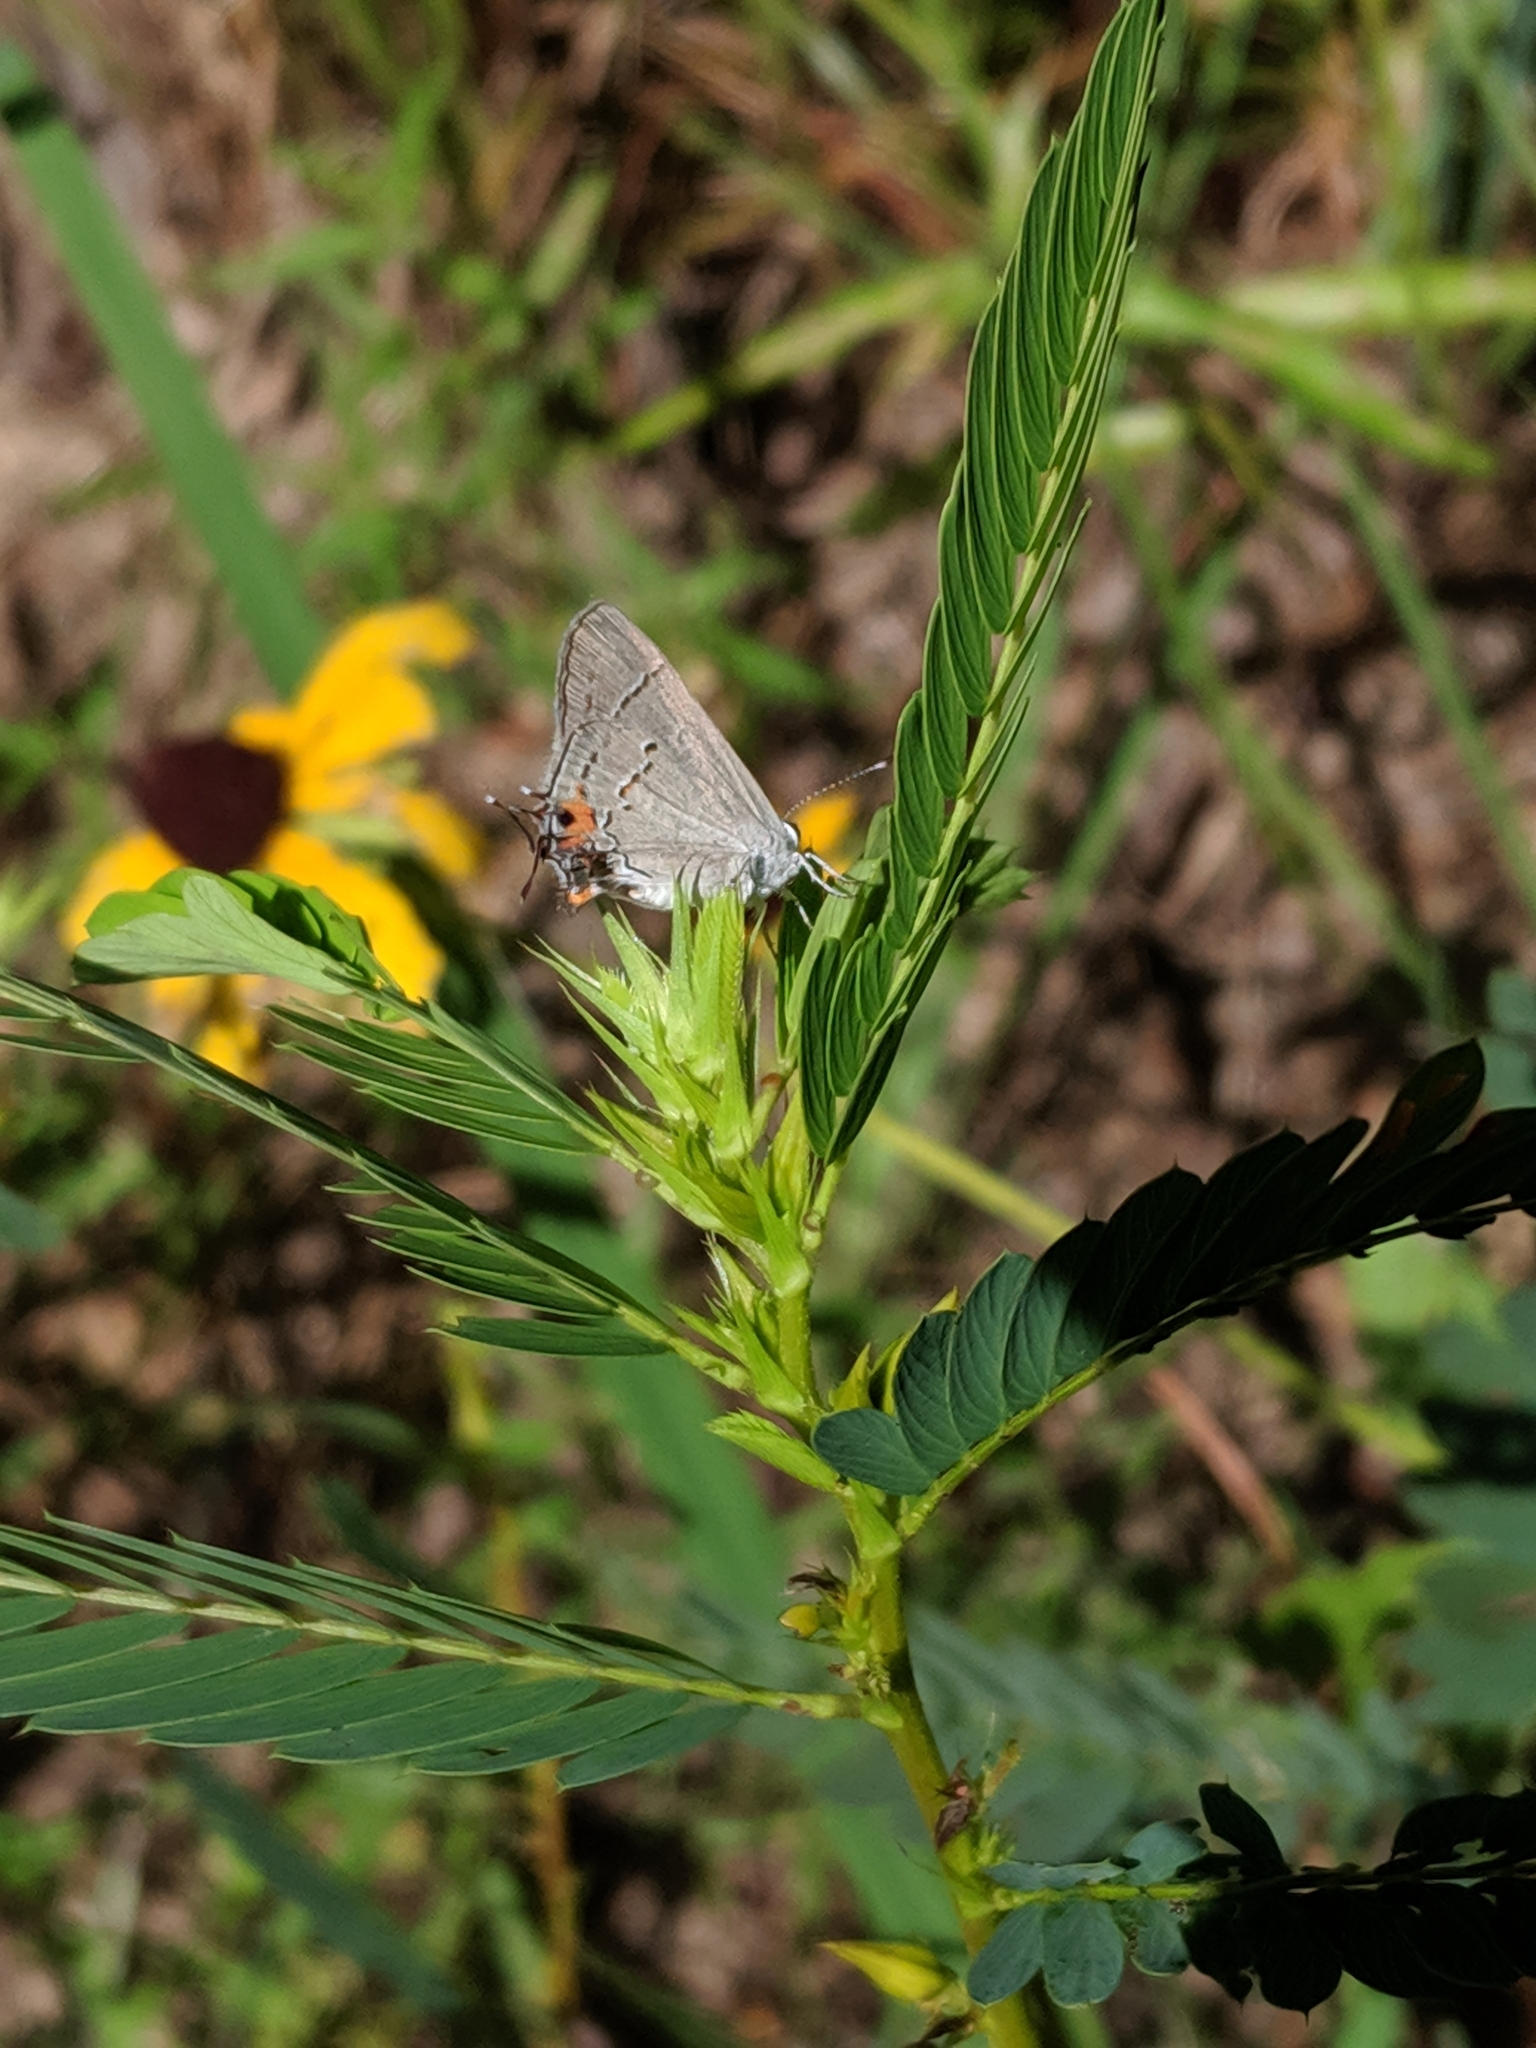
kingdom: Animalia
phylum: Arthropoda
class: Insecta
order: Lepidoptera
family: Lycaenidae
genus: Strymon
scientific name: Strymon melinus
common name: Gray hairstreak
